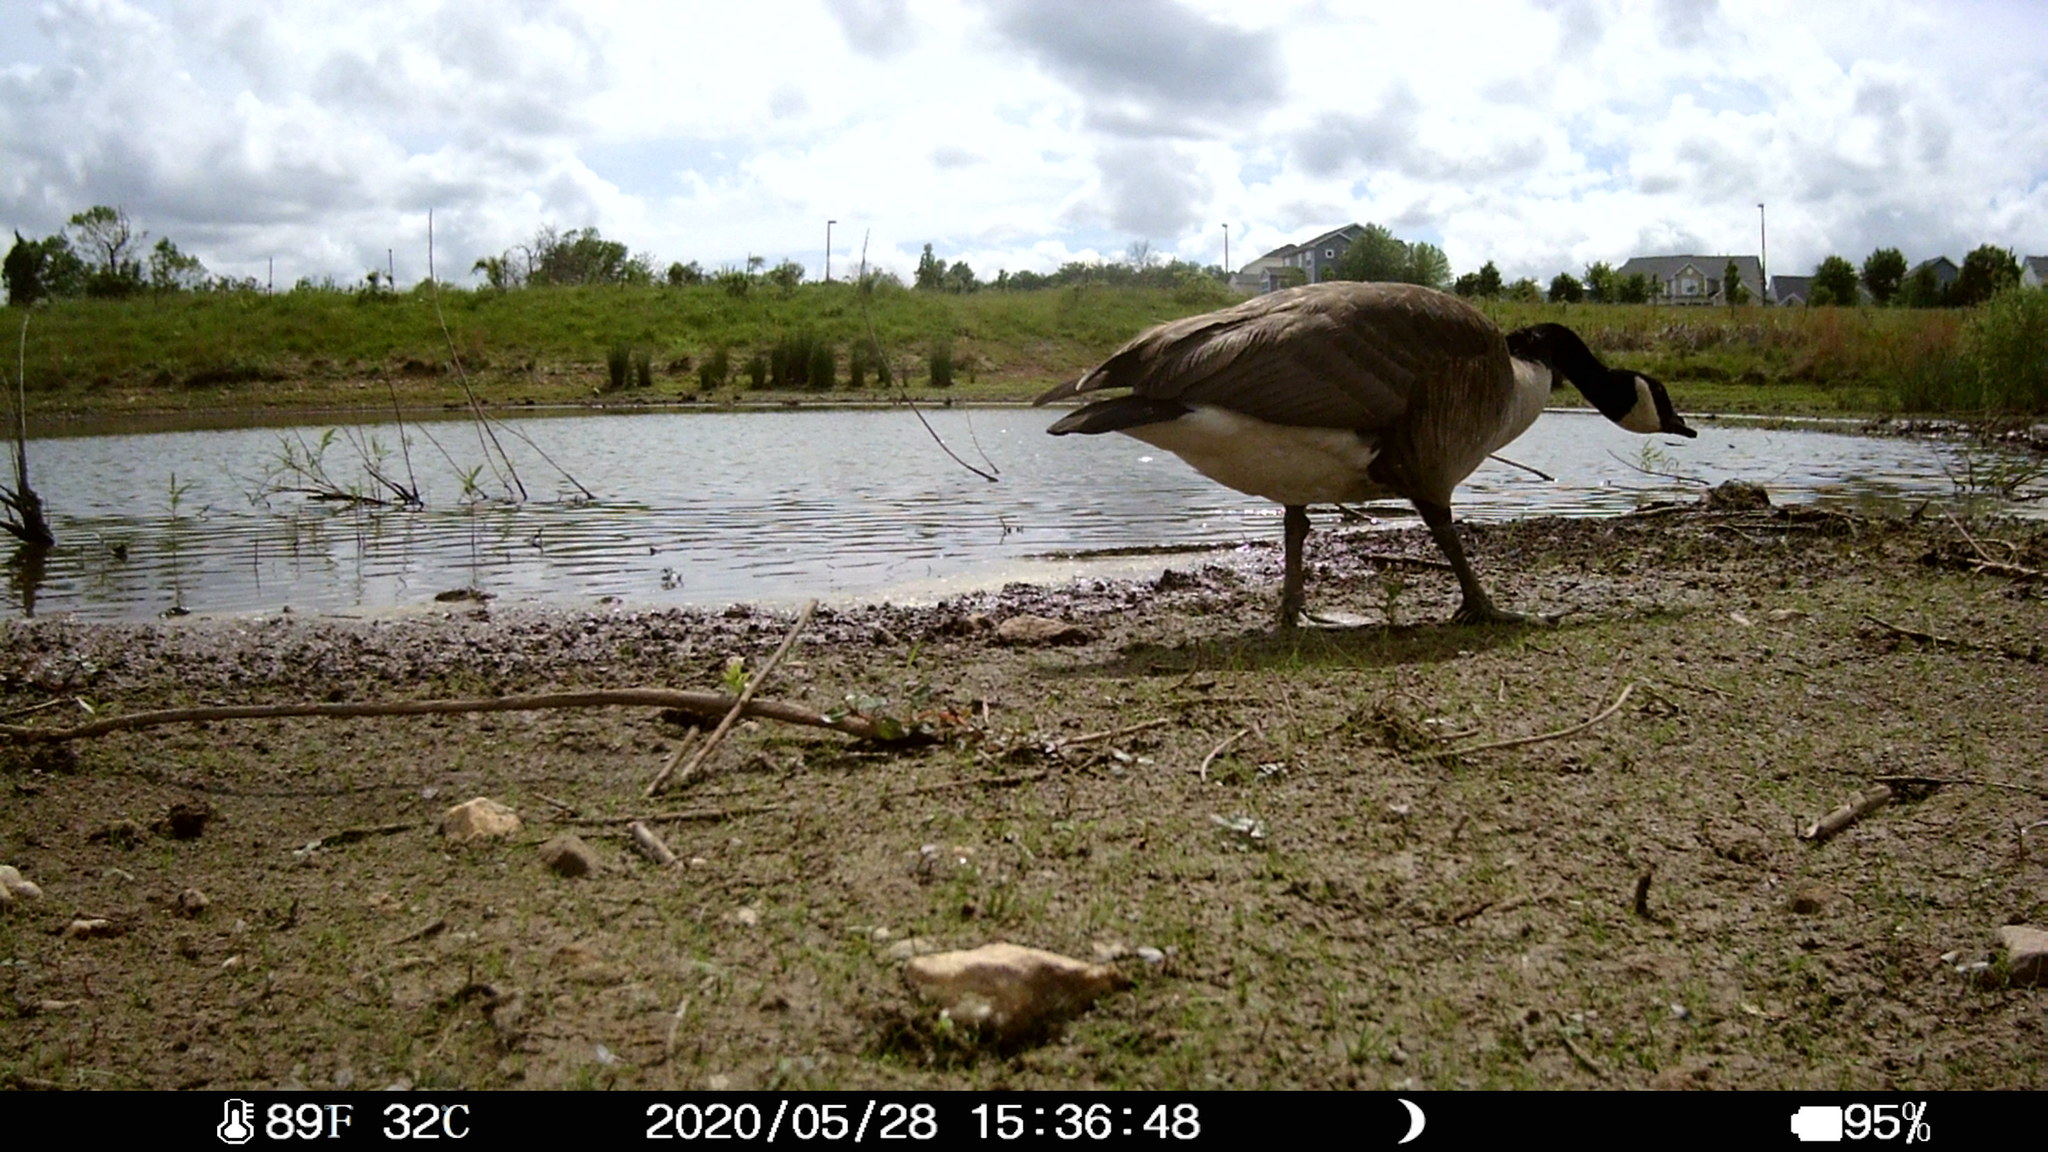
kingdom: Animalia
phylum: Chordata
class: Aves
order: Anseriformes
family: Anatidae
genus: Branta
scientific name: Branta canadensis
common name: Canada goose
